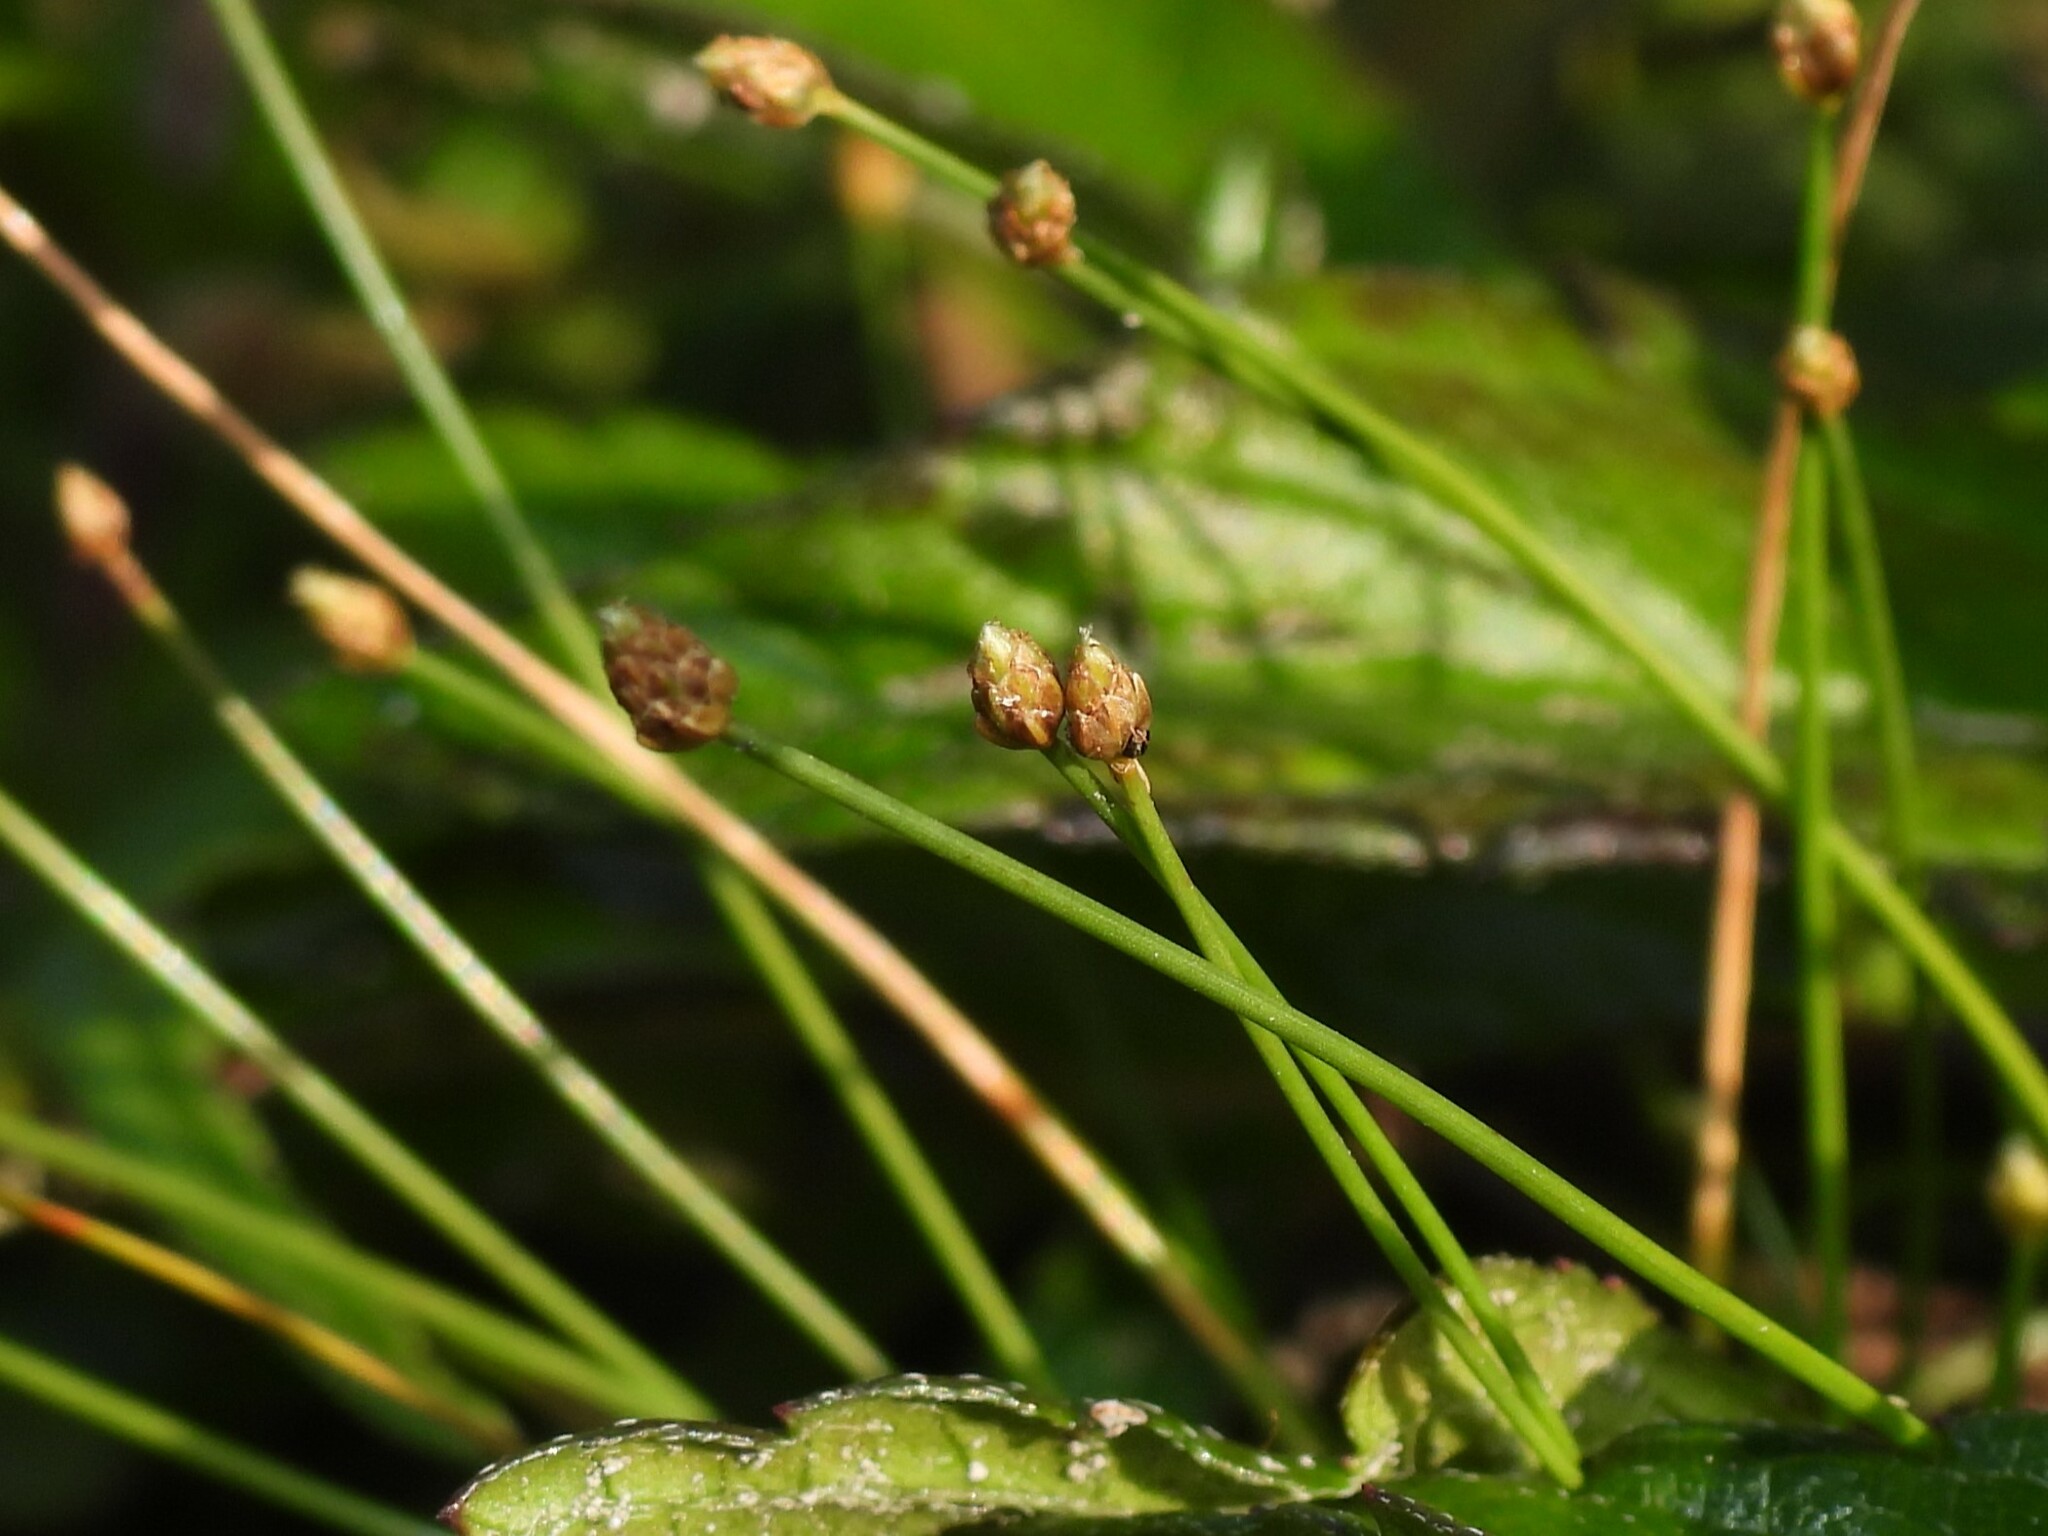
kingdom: Plantae
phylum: Tracheophyta
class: Liliopsida
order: Poales
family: Cyperaceae
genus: Eleocharis
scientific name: Eleocharis geniculata
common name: Canada spikesedge
